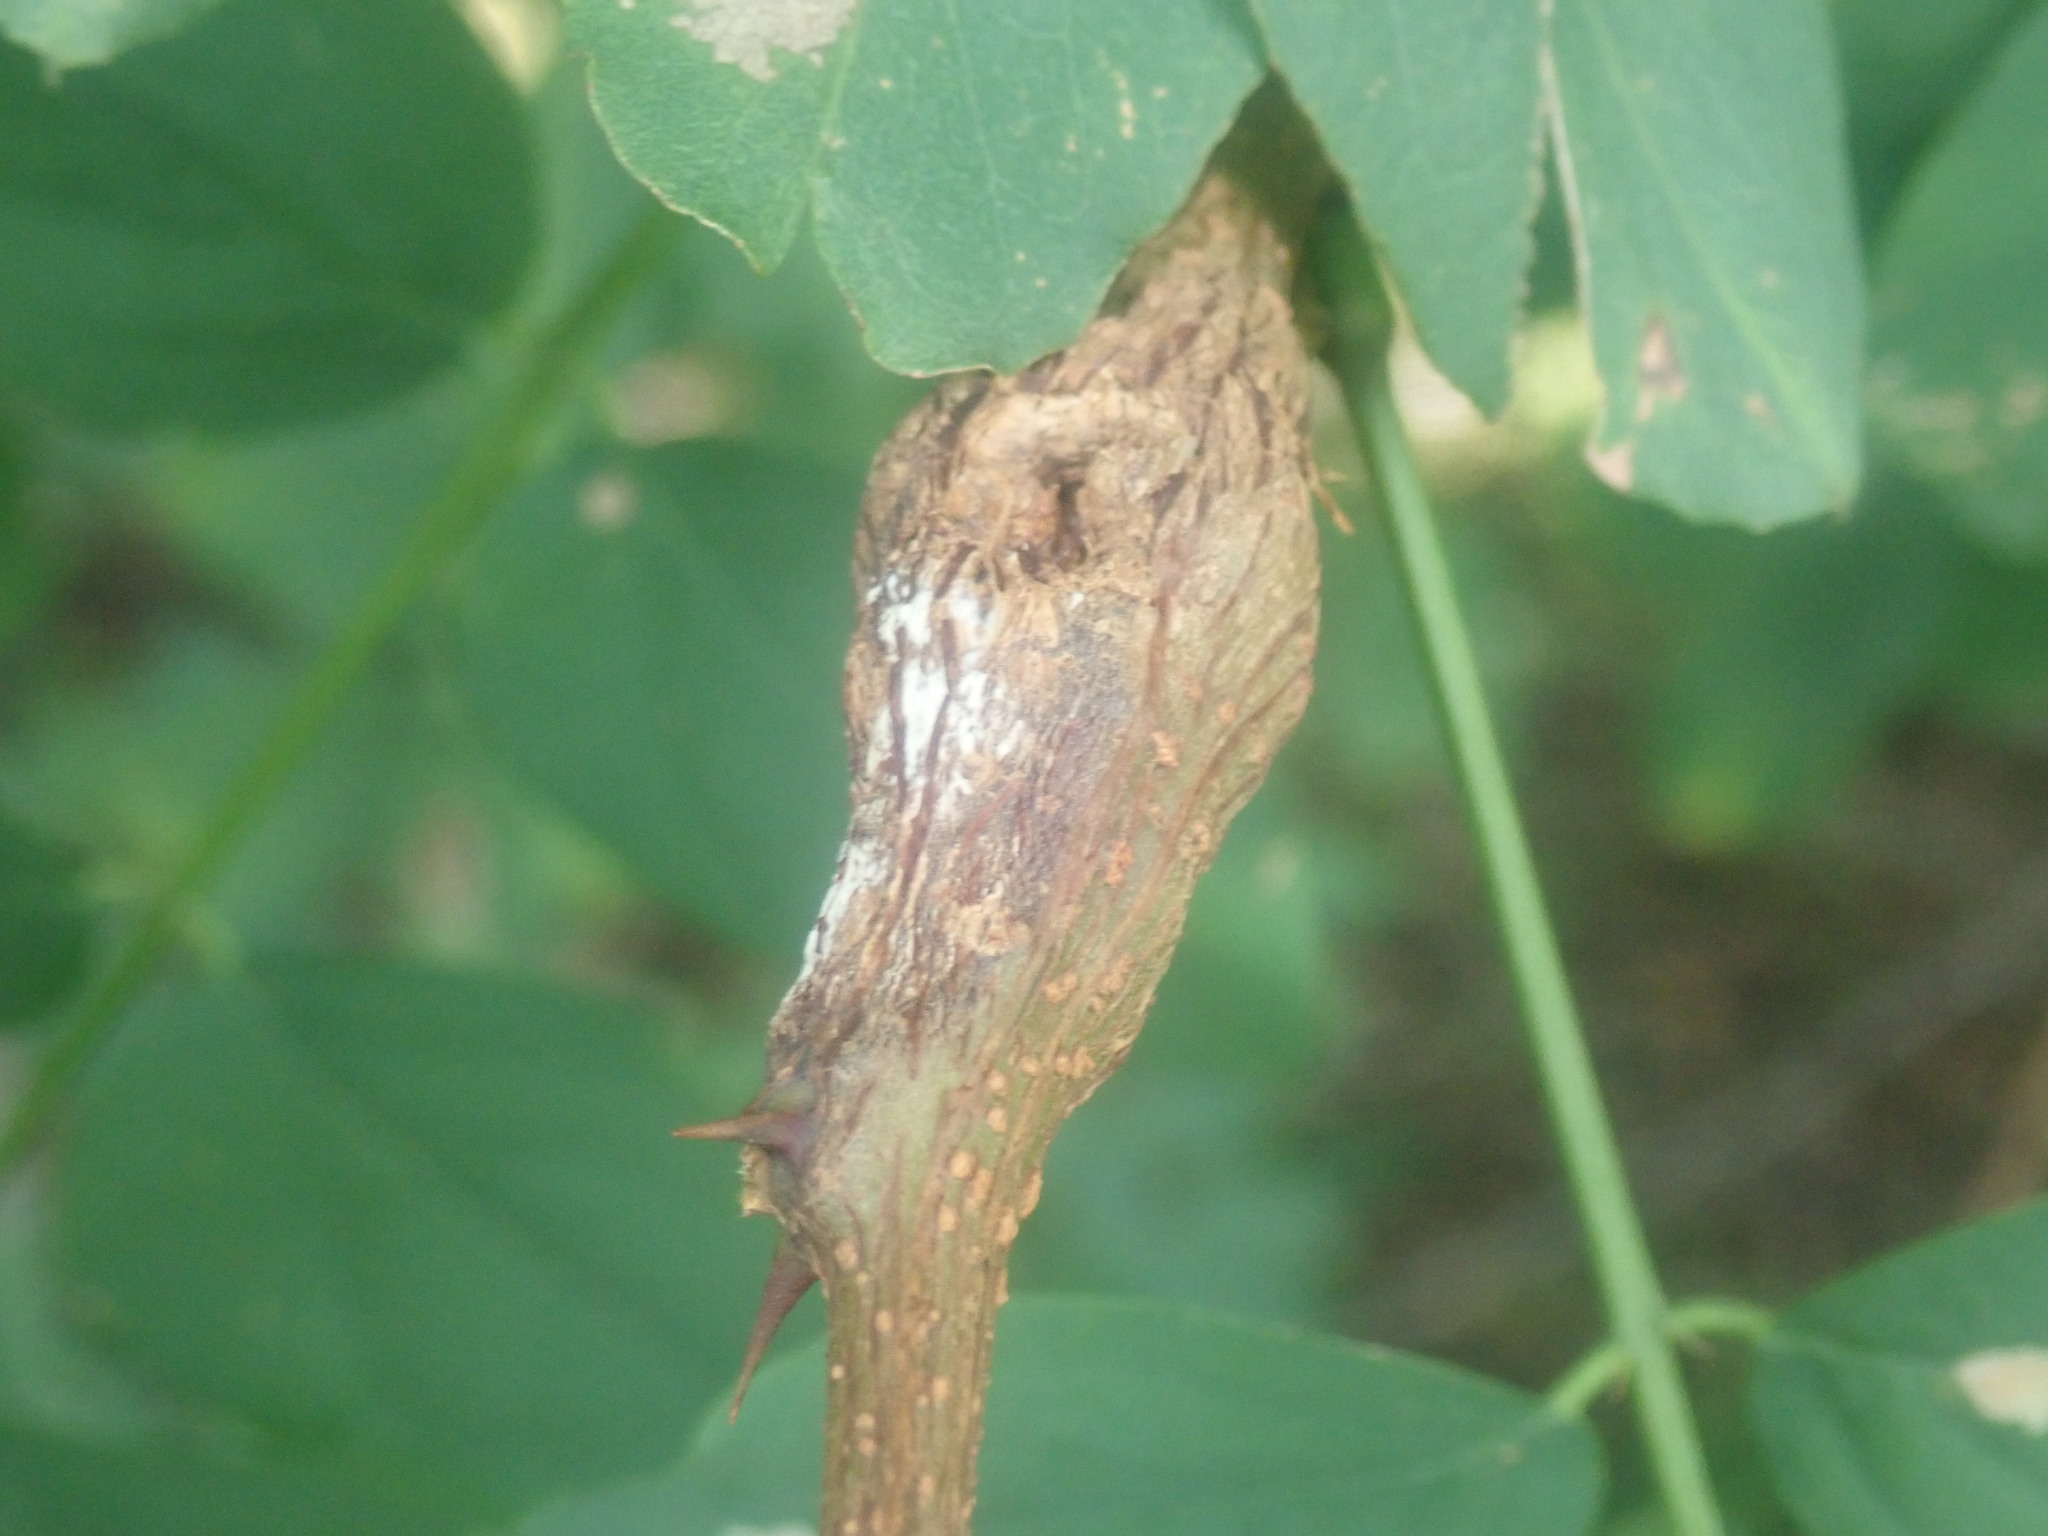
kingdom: Animalia
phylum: Arthropoda
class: Insecta
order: Lepidoptera
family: Tortricidae
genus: Ecdytolopha
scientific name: Ecdytolopha insiticiana
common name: Locust twig borer moth
